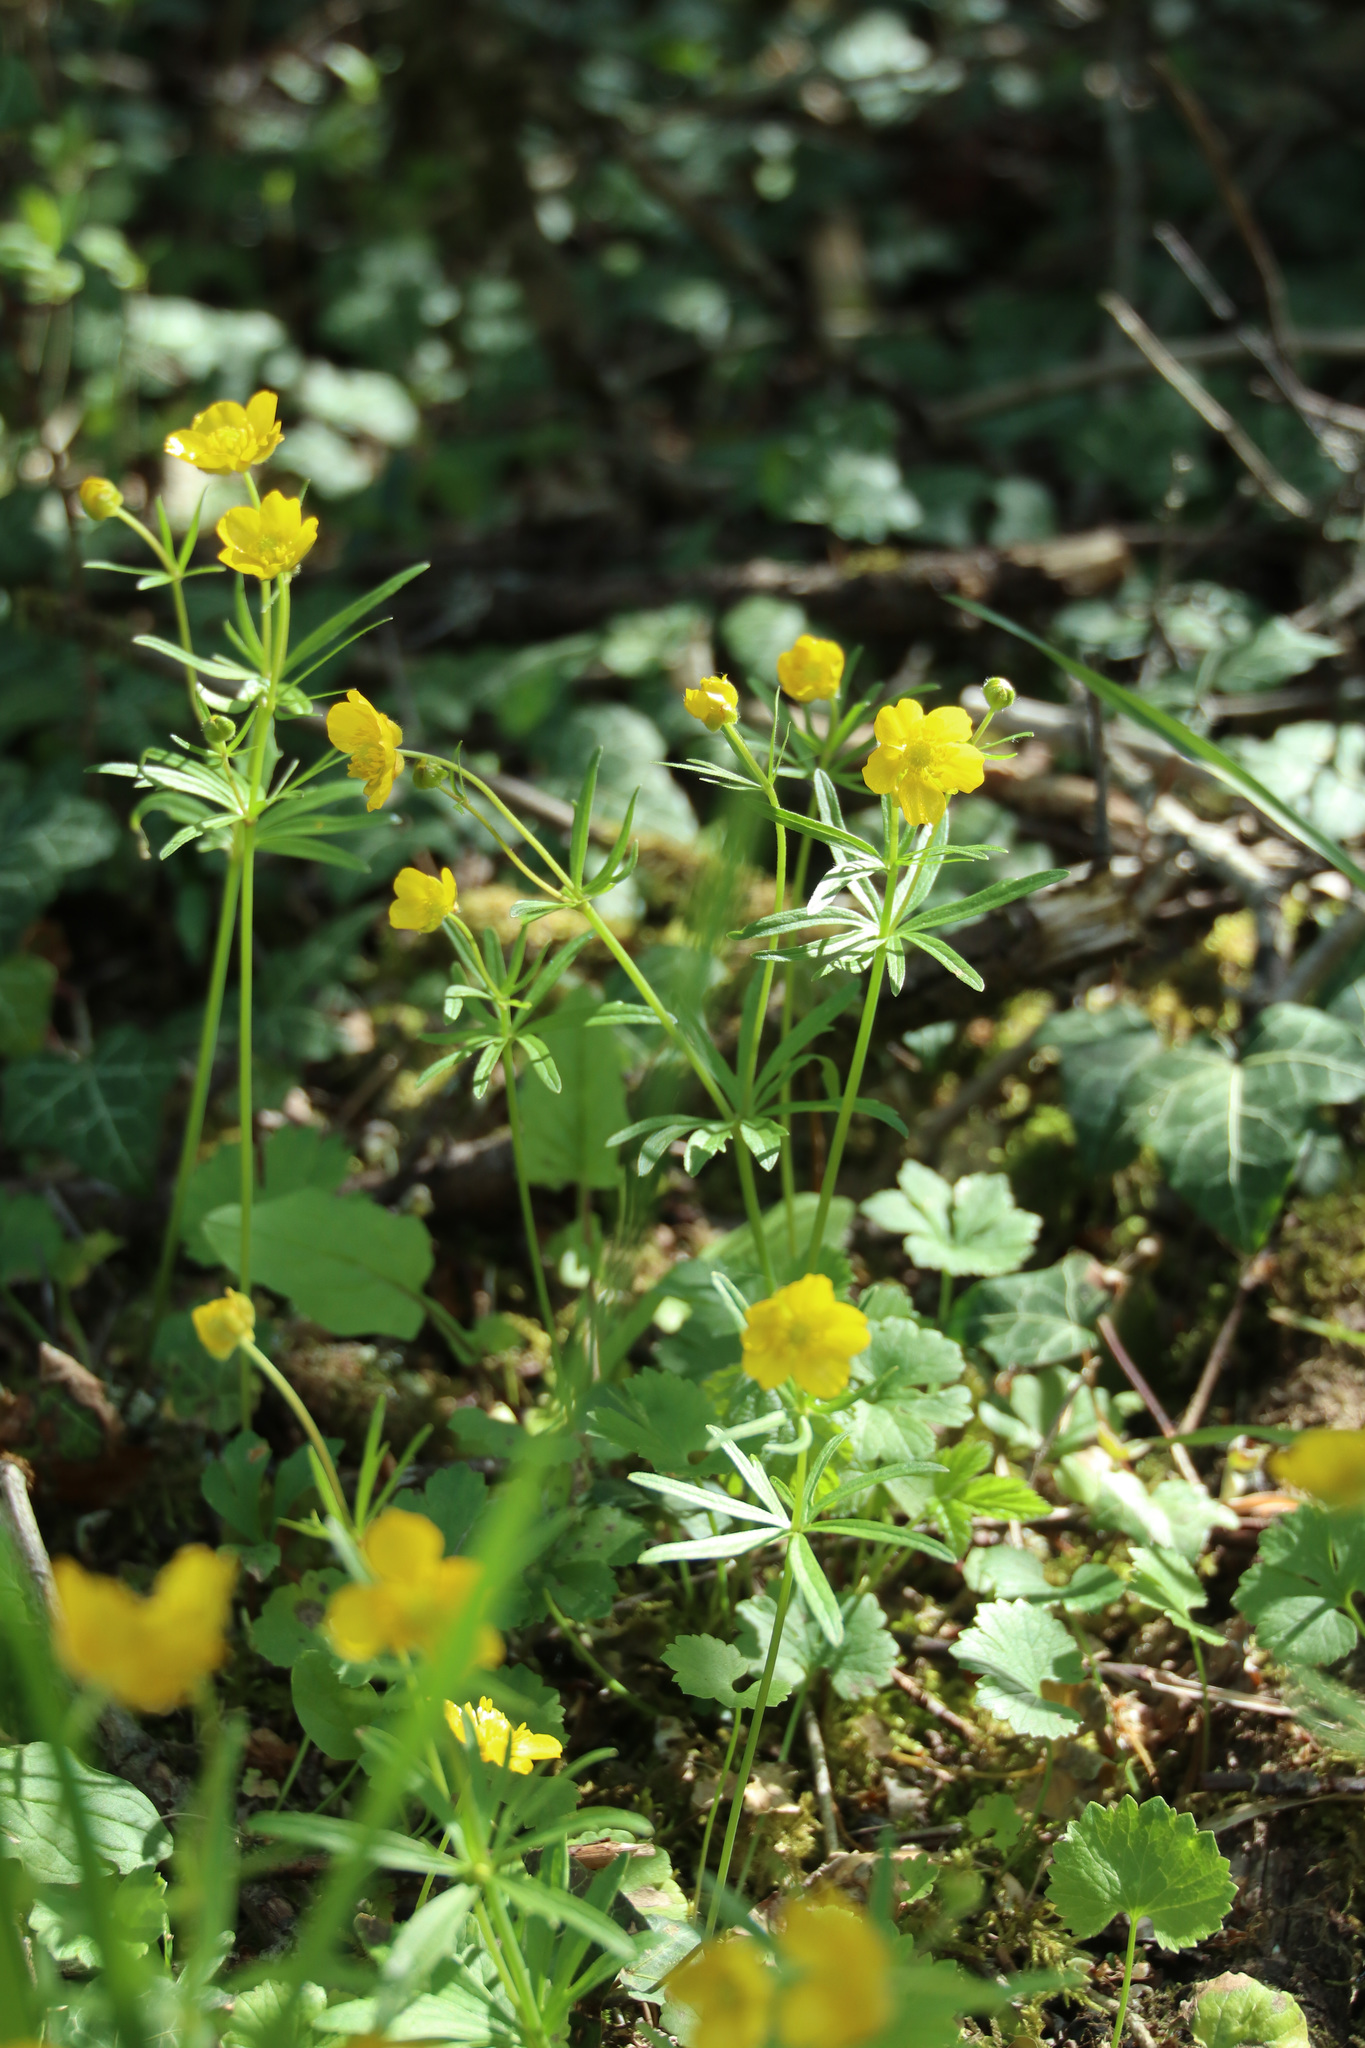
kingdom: Plantae
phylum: Tracheophyta
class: Magnoliopsida
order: Ranunculales
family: Ranunculaceae
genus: Ranunculus
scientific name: Ranunculus auricomus
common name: Goldilocks buttercup
